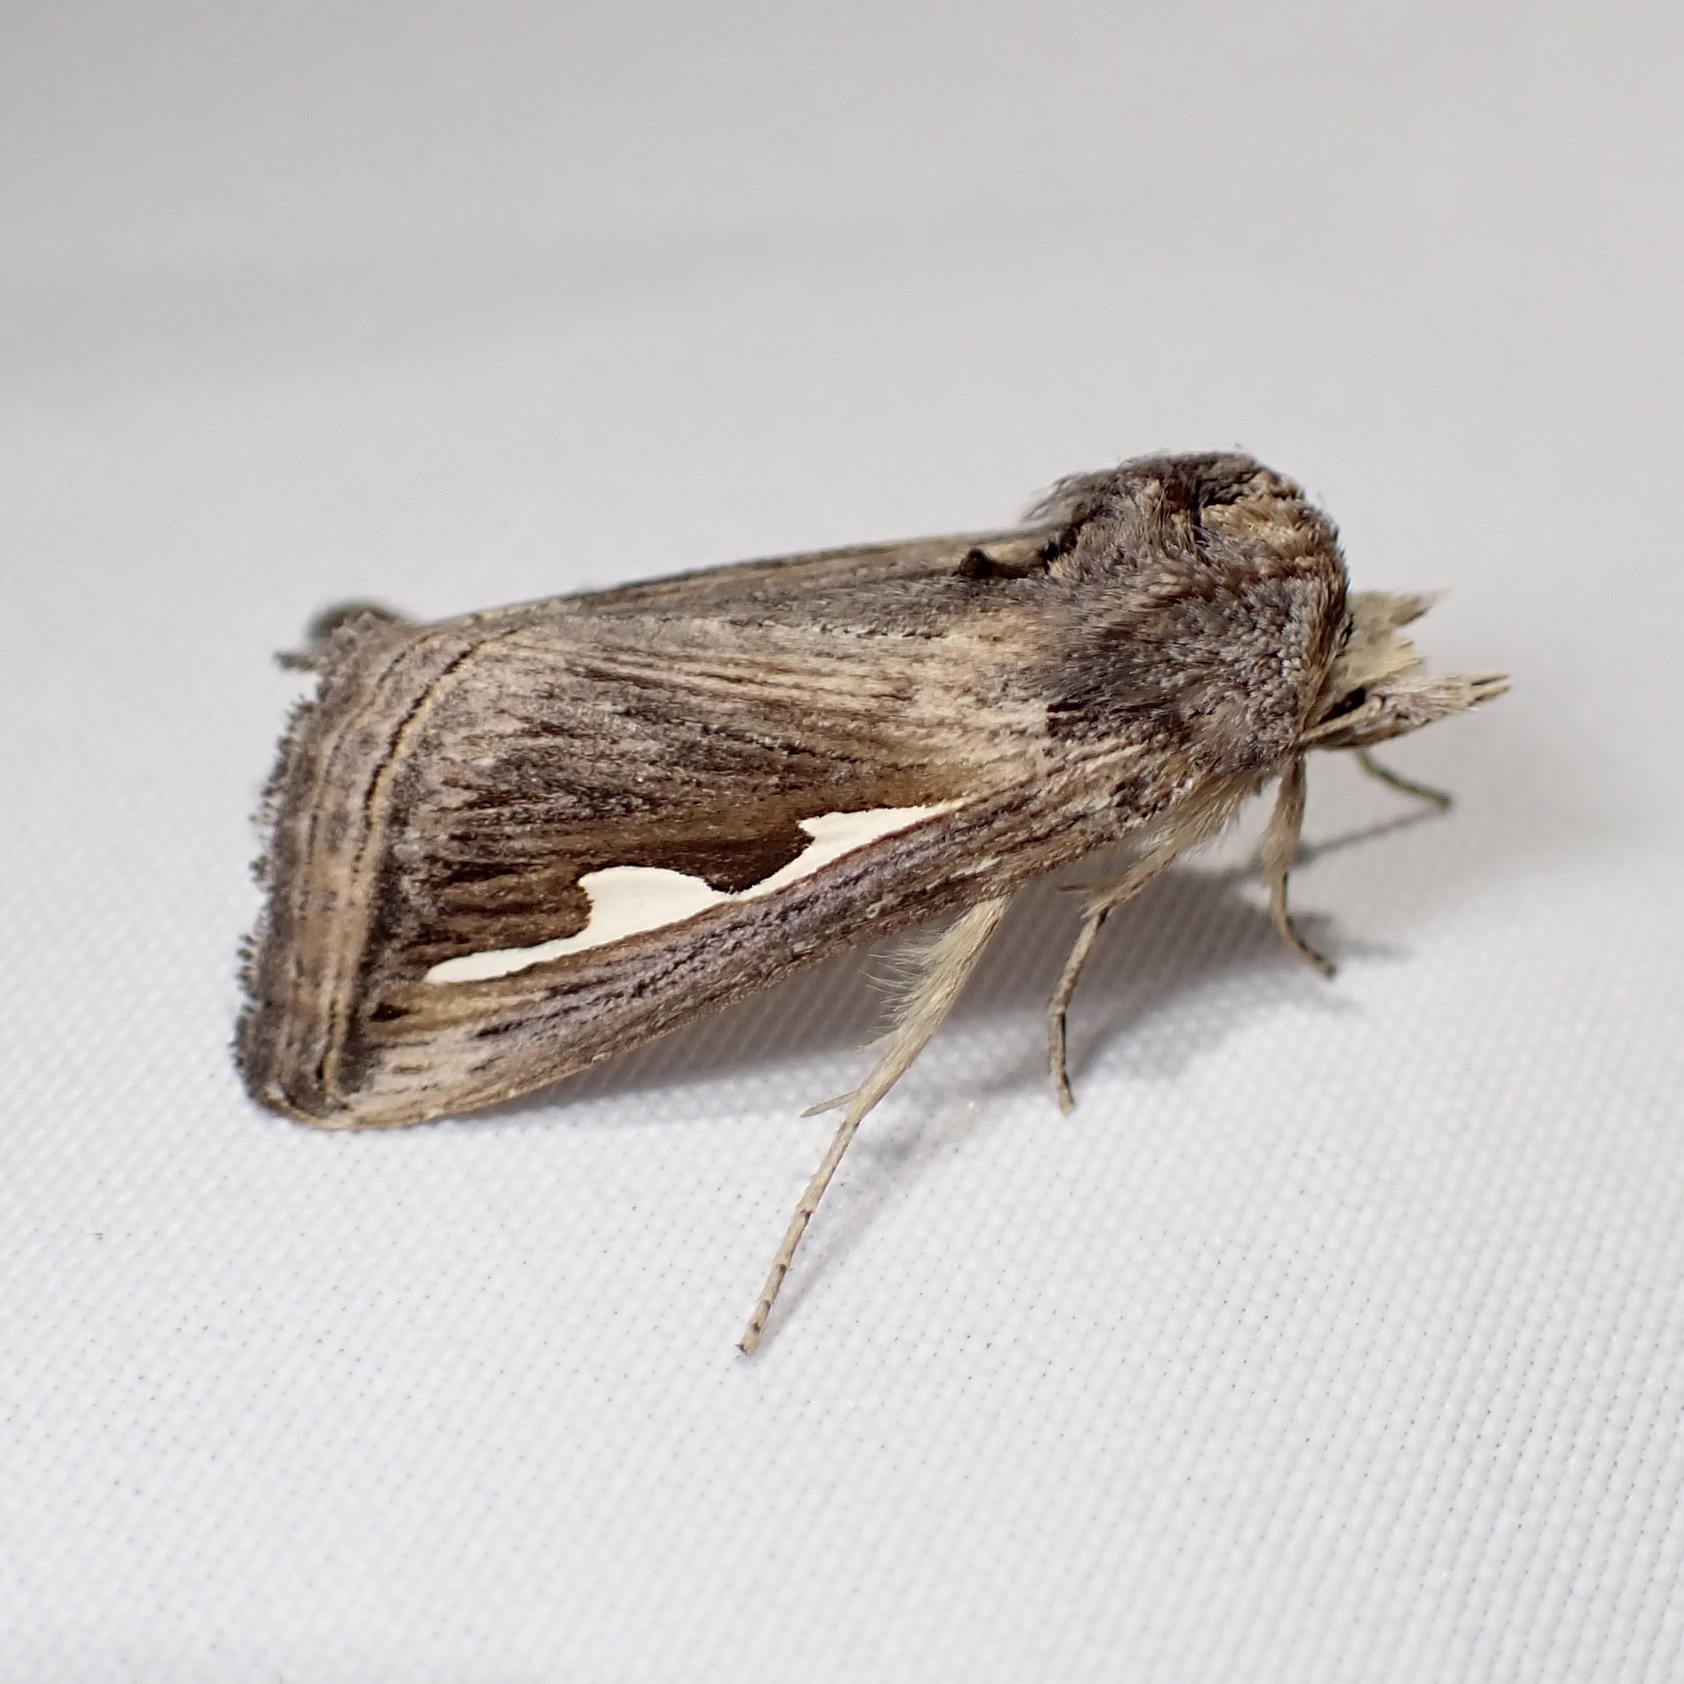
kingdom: Animalia
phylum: Arthropoda
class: Insecta
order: Lepidoptera
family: Notodontidae
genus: Didugua
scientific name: Didugua argentilinea
